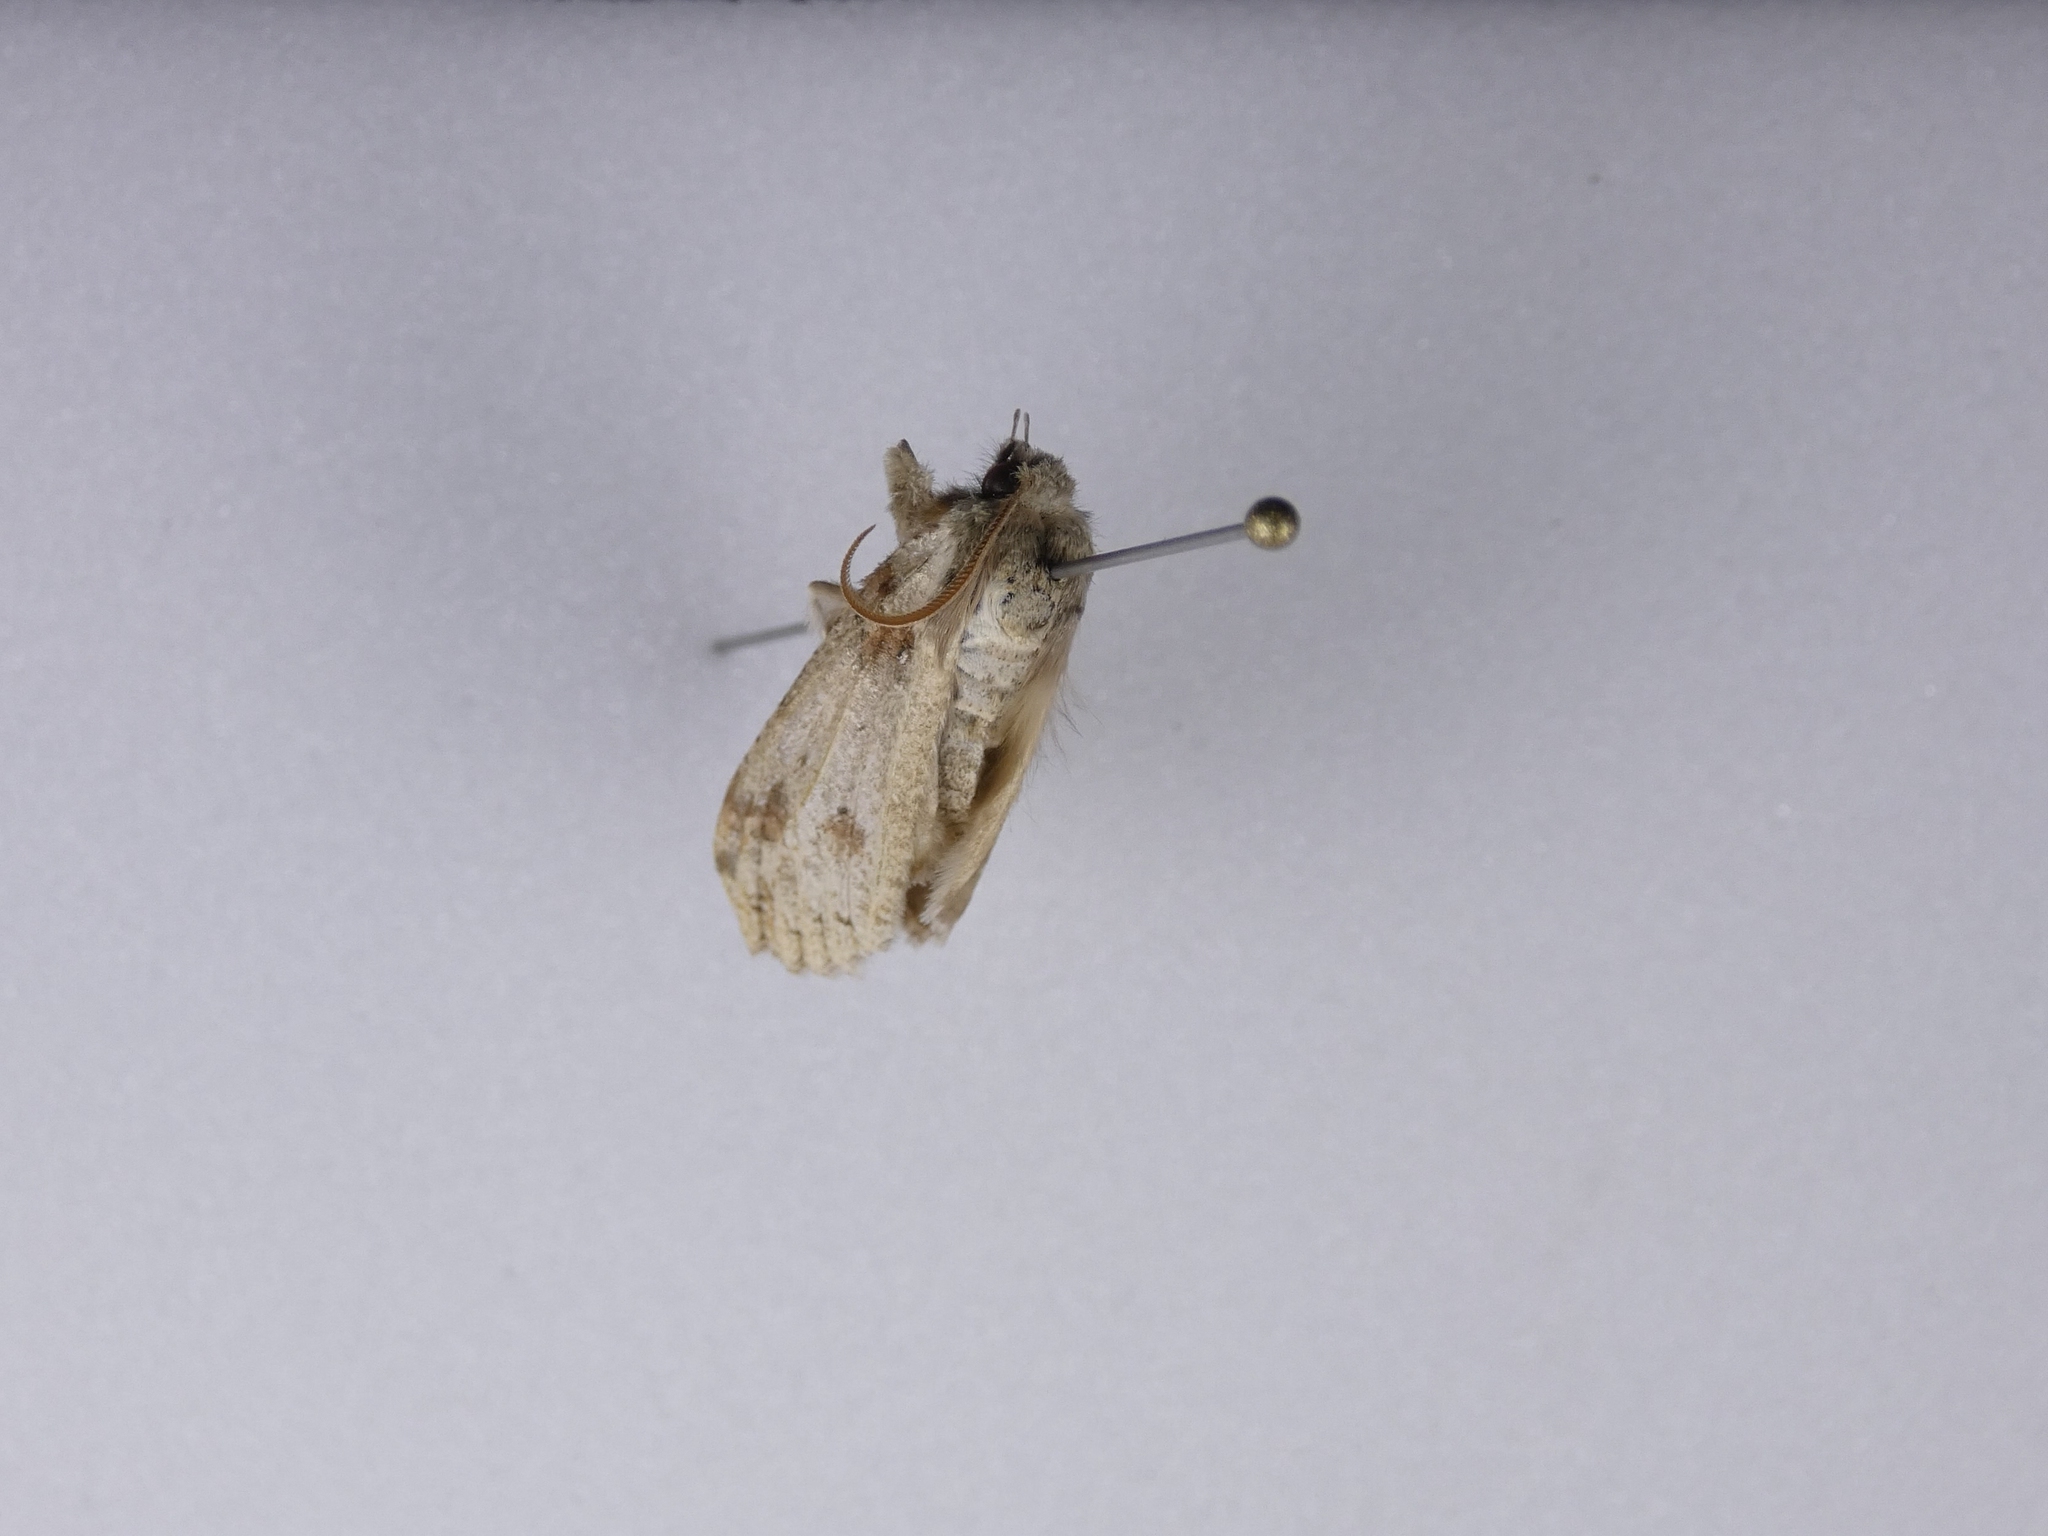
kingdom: Animalia
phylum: Arthropoda
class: Insecta
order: Lepidoptera
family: Geometridae
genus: Declana
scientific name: Declana floccosa
